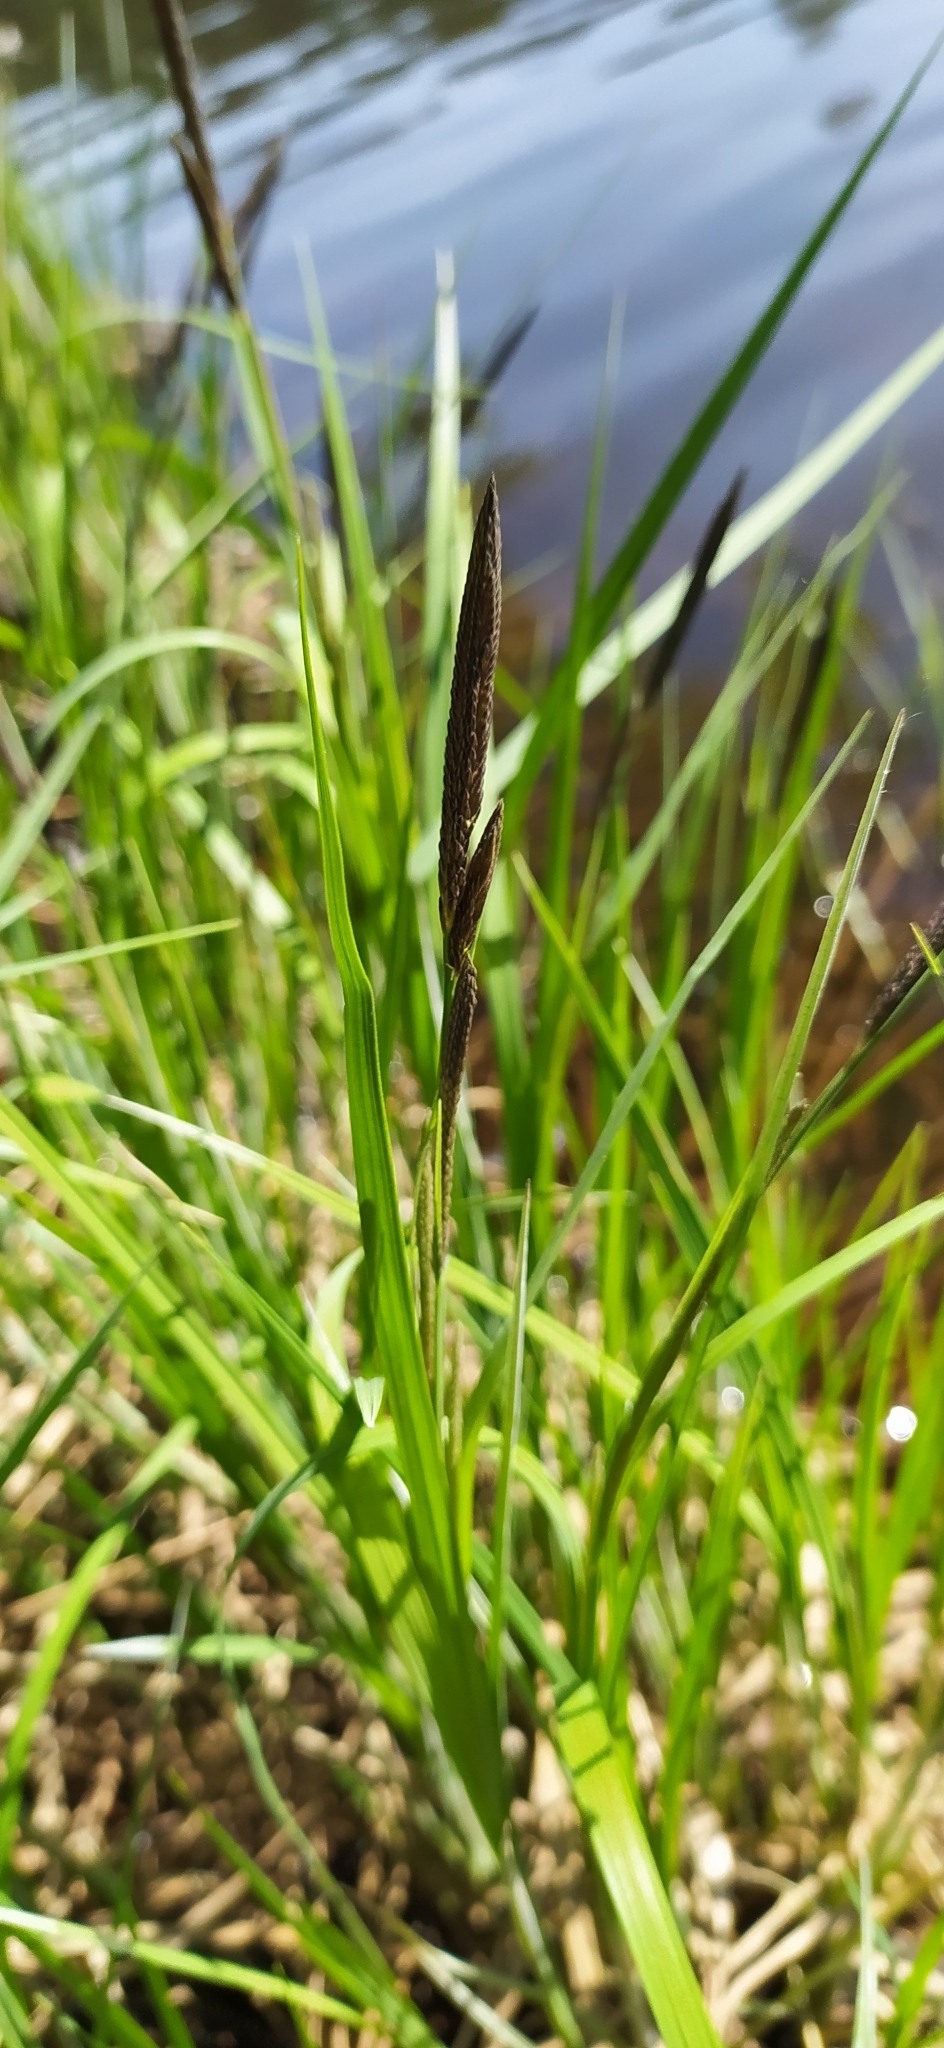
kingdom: Plantae
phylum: Tracheophyta
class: Liliopsida
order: Poales
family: Cyperaceae
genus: Carex
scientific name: Carex acuta
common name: Slender tufted-sedge
